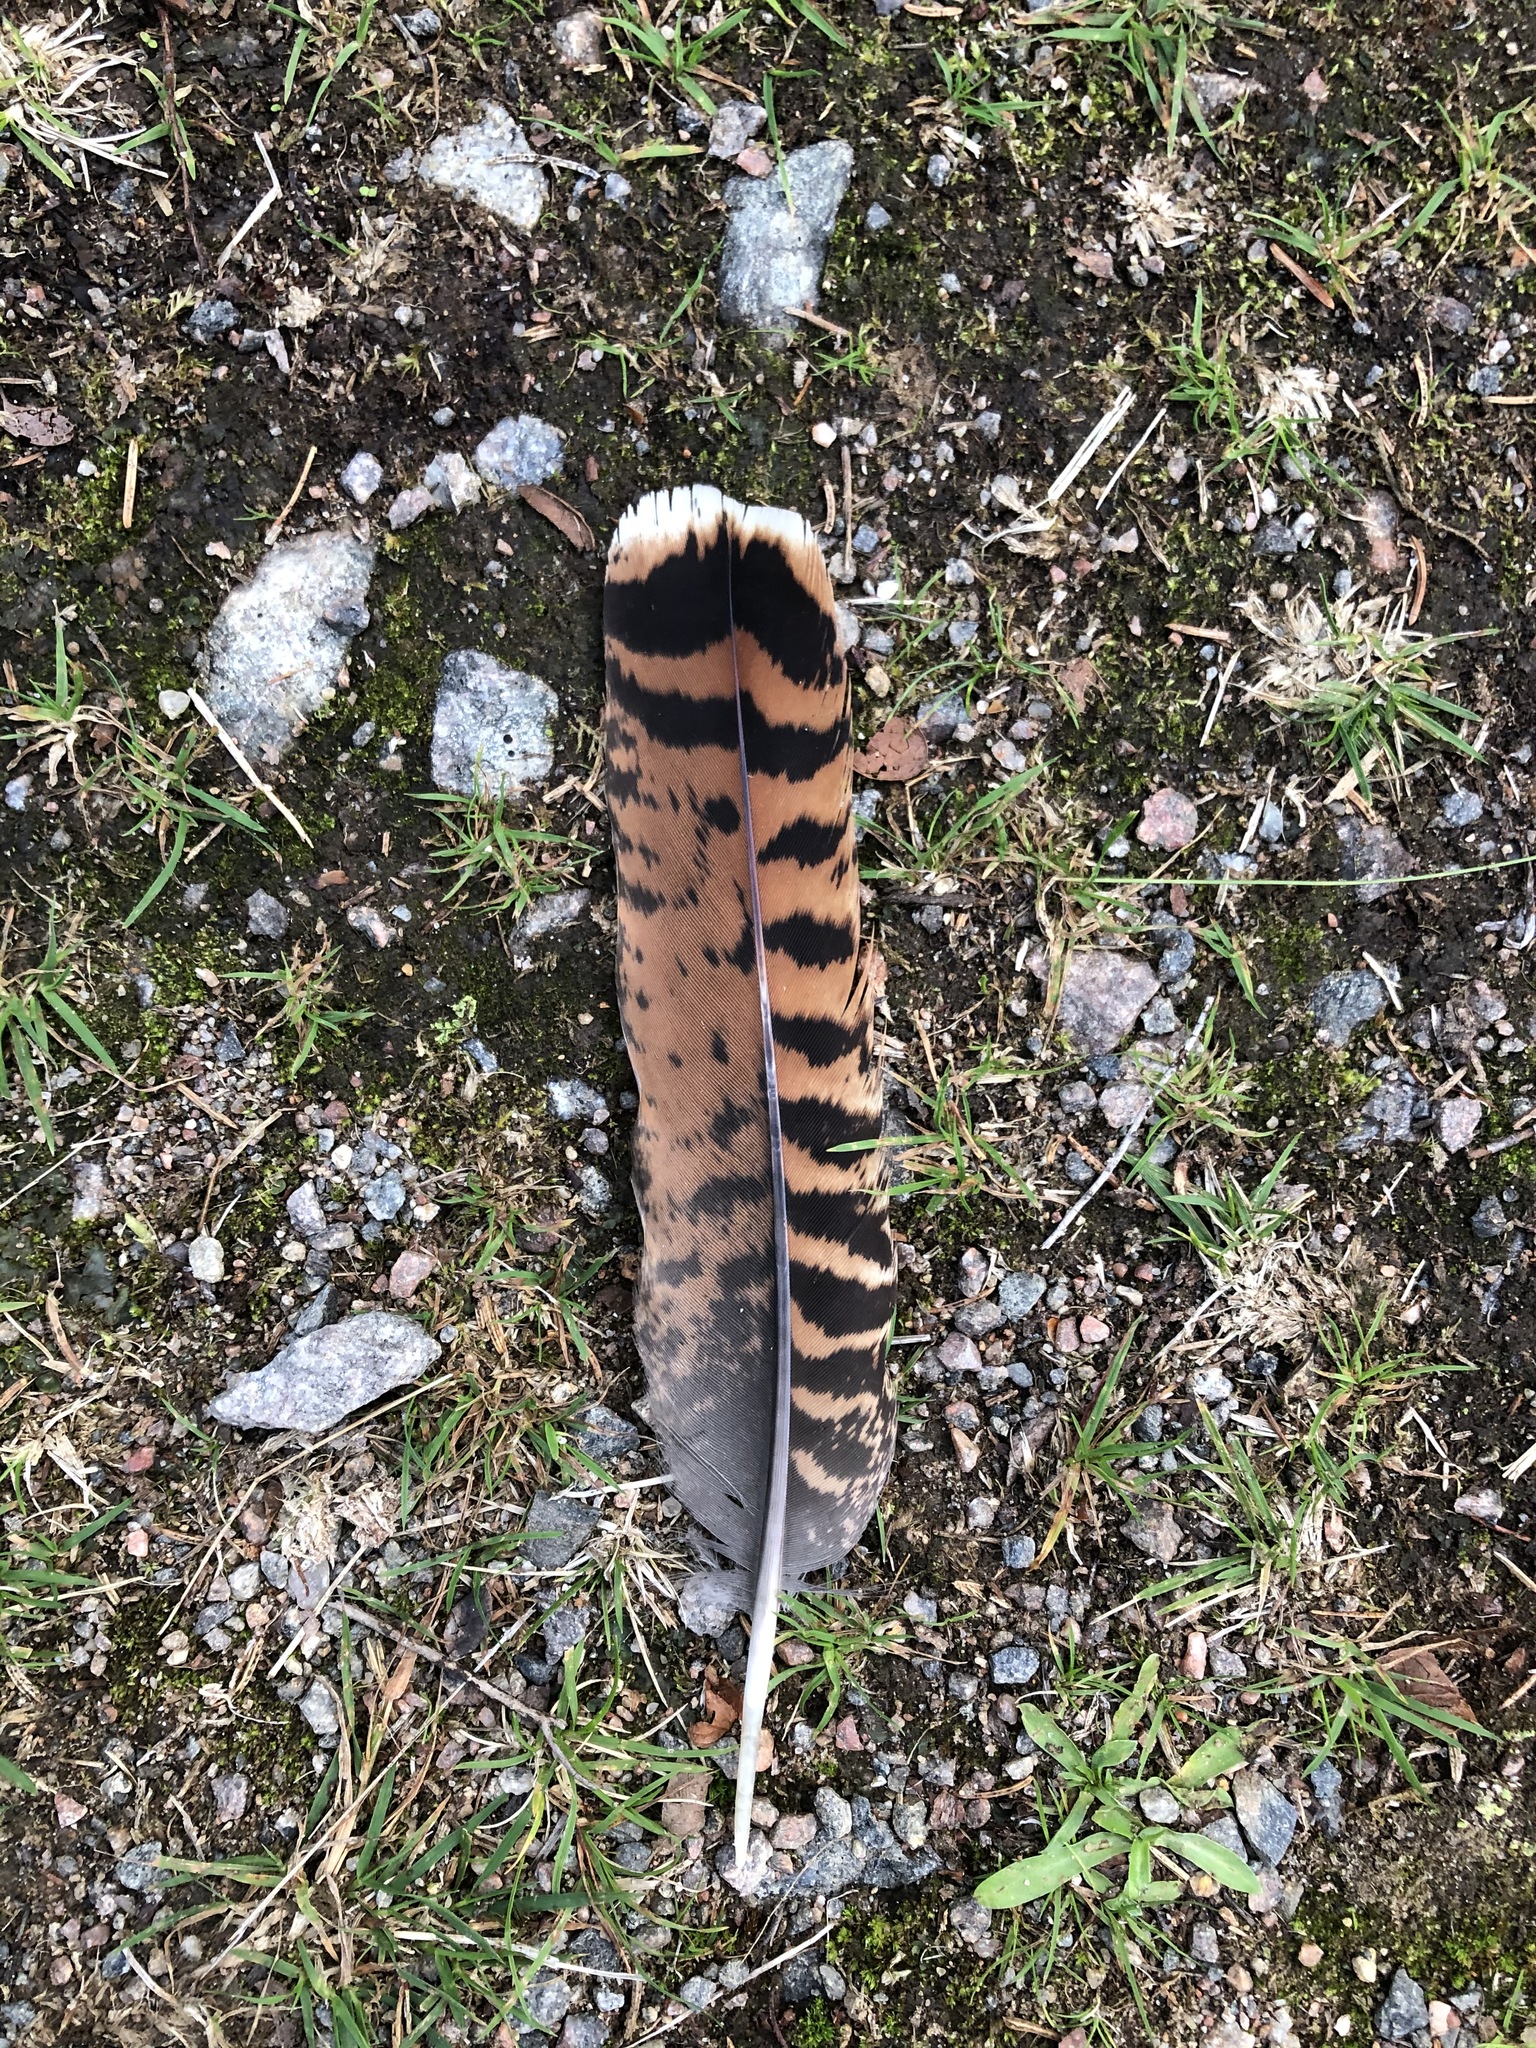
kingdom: Animalia
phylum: Chordata
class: Aves
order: Galliformes
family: Phasianidae
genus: Tetrao
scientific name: Tetrao urogallus
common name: Western capercaillie
